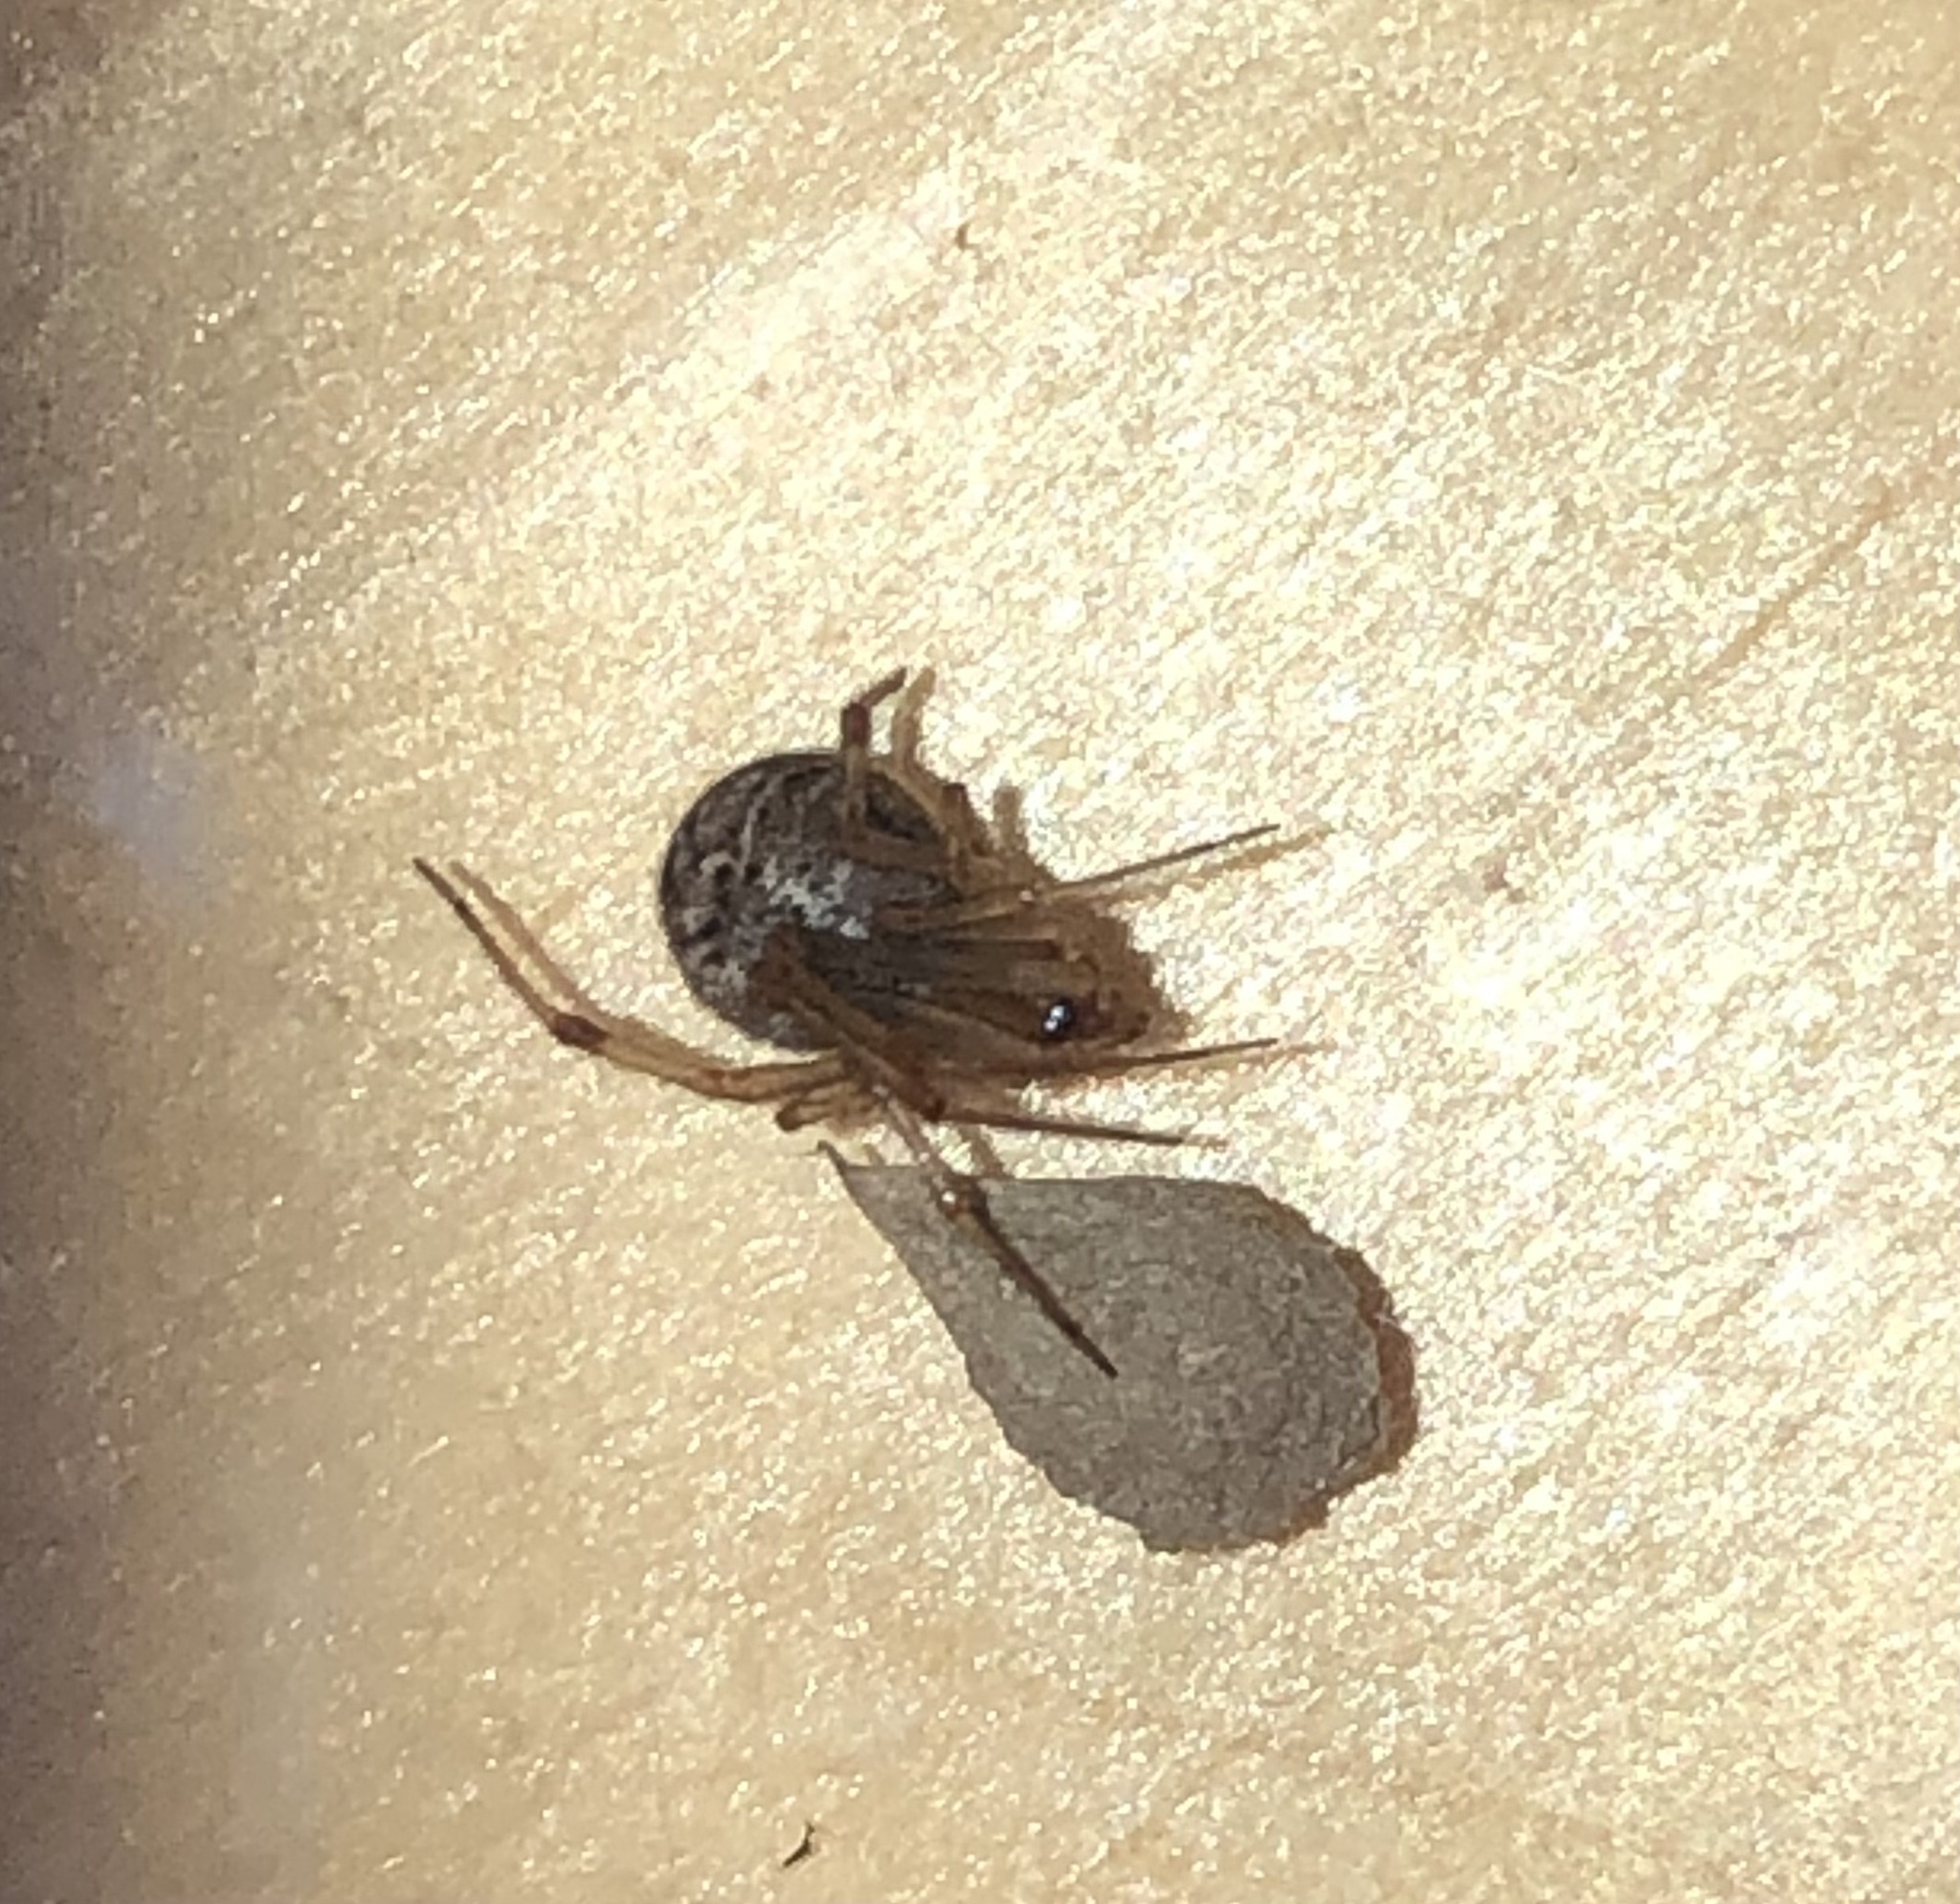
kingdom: Animalia
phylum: Arthropoda
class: Arachnida
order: Araneae
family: Theridiidae
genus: Parasteatoda
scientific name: Parasteatoda tepidariorum
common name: Common house spider
